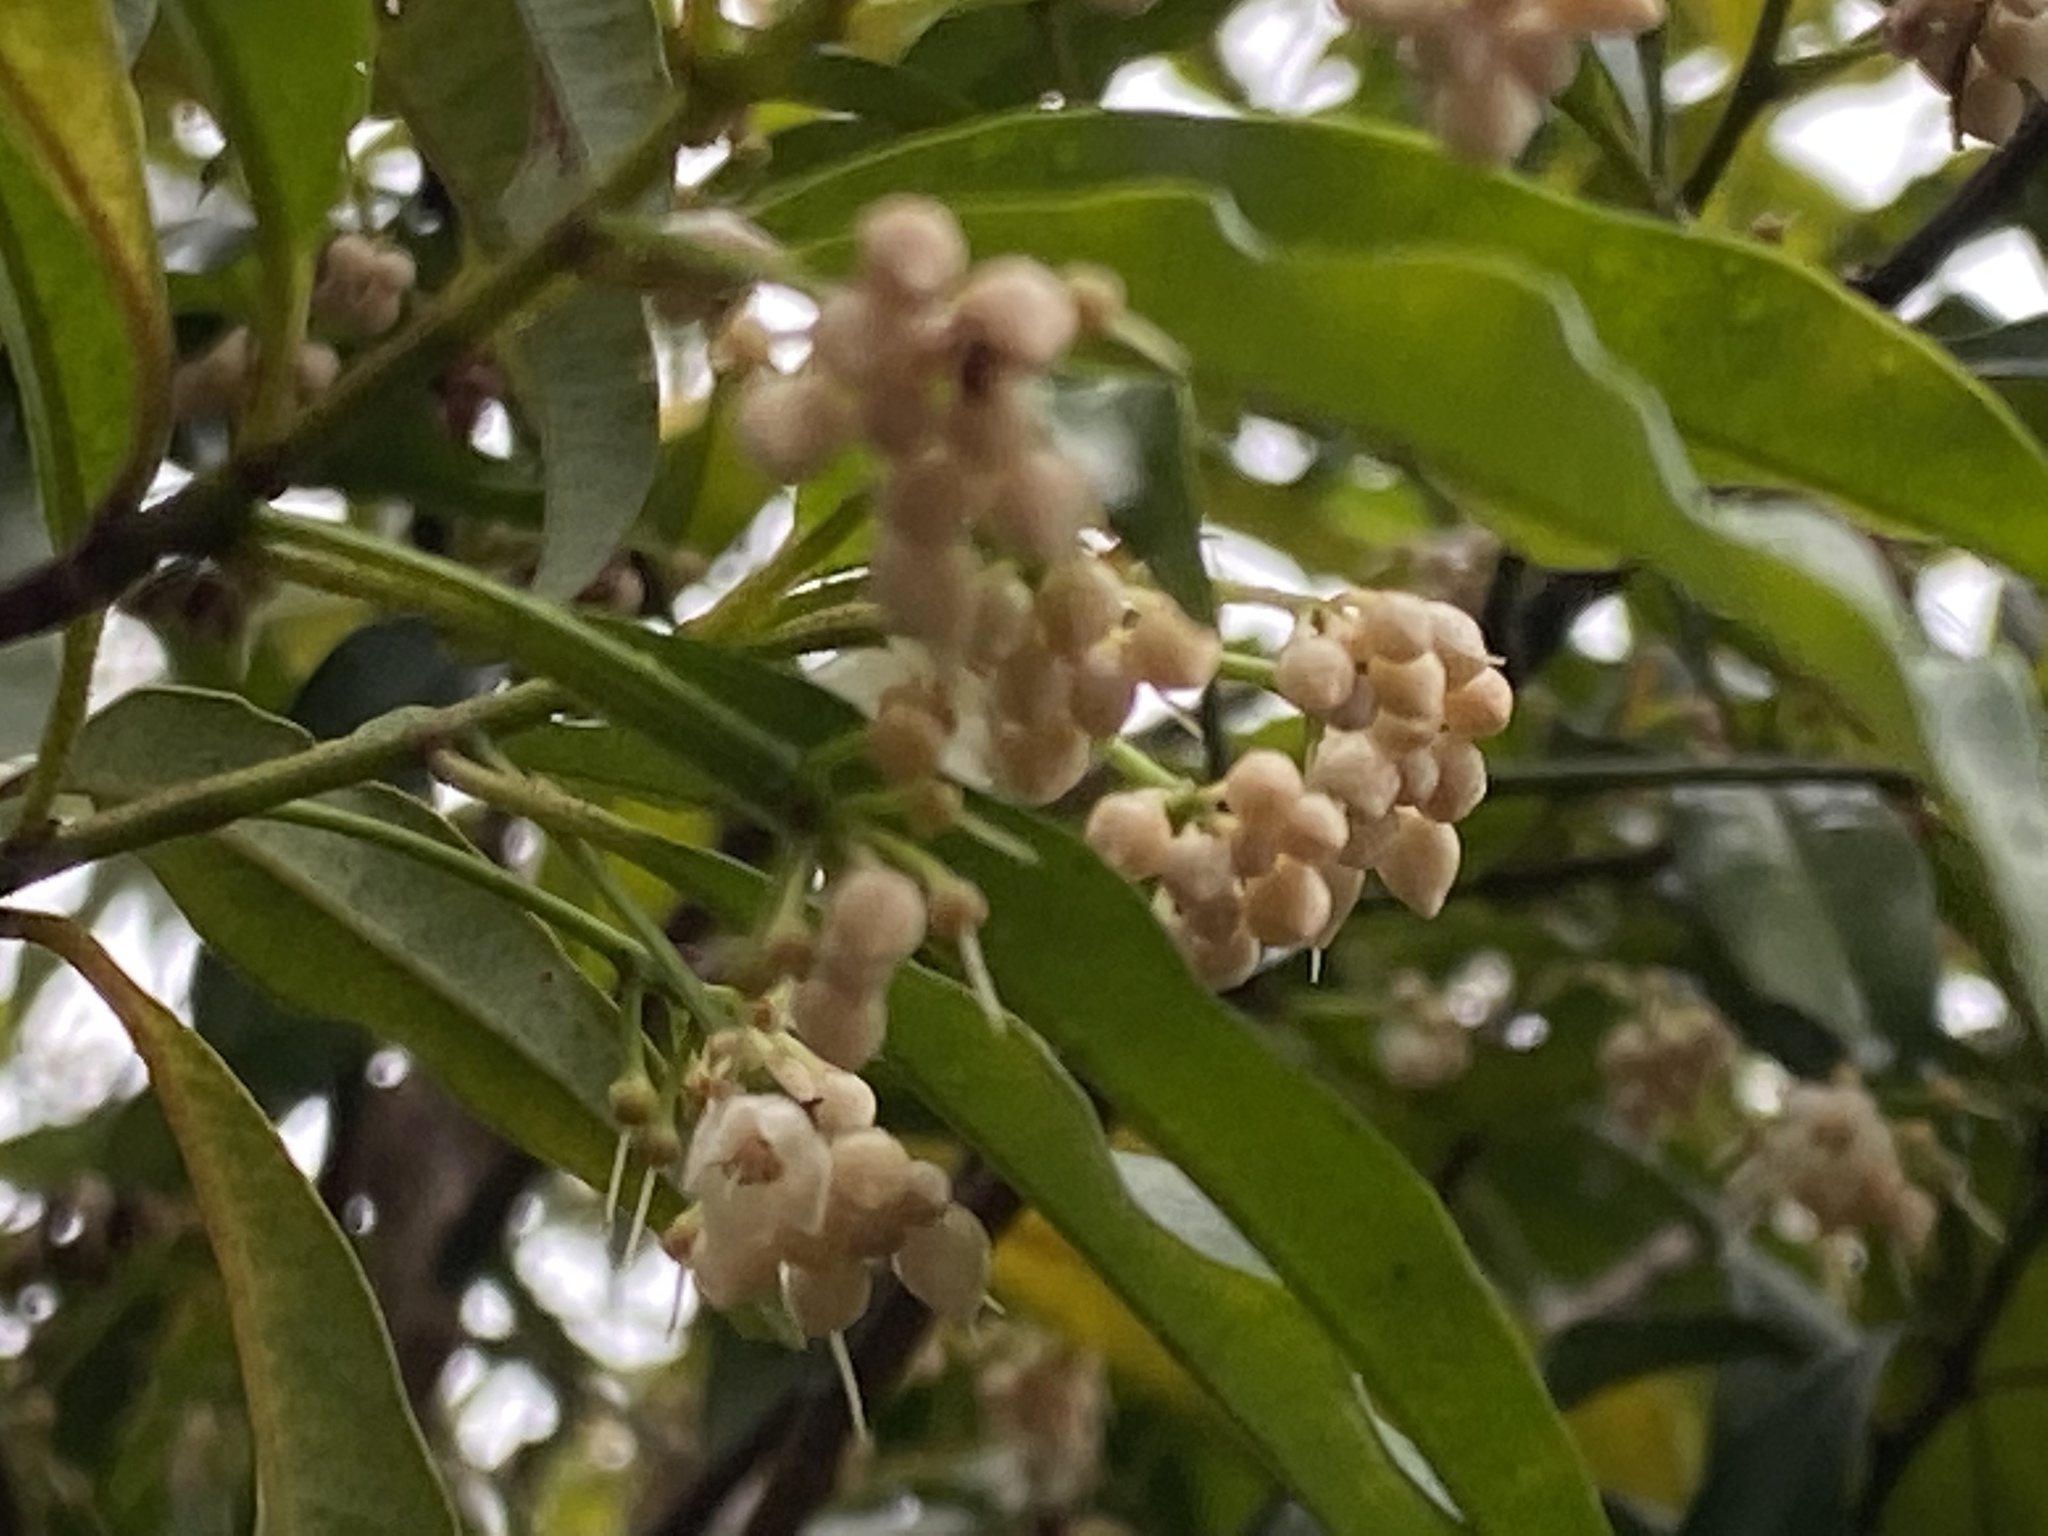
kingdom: Plantae
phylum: Tracheophyta
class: Magnoliopsida
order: Ericales
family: Primulaceae
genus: Ardisia
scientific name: Ardisia quinquegona
